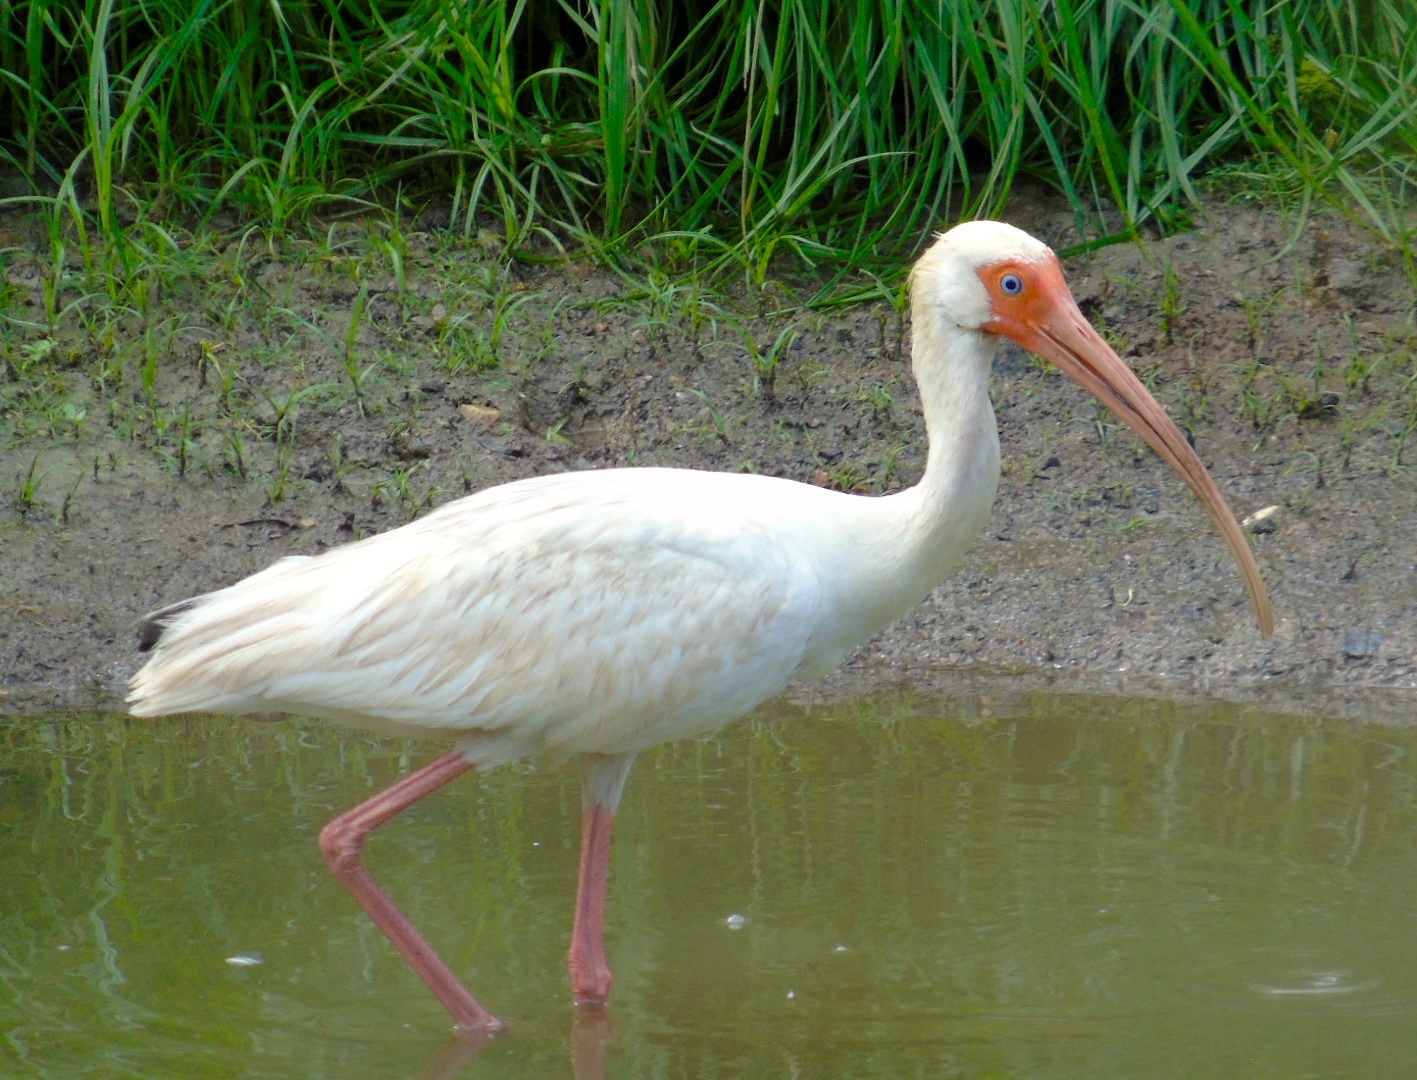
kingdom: Animalia
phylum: Chordata
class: Aves
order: Pelecaniformes
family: Threskiornithidae
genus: Eudocimus
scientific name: Eudocimus albus
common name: White ibis
